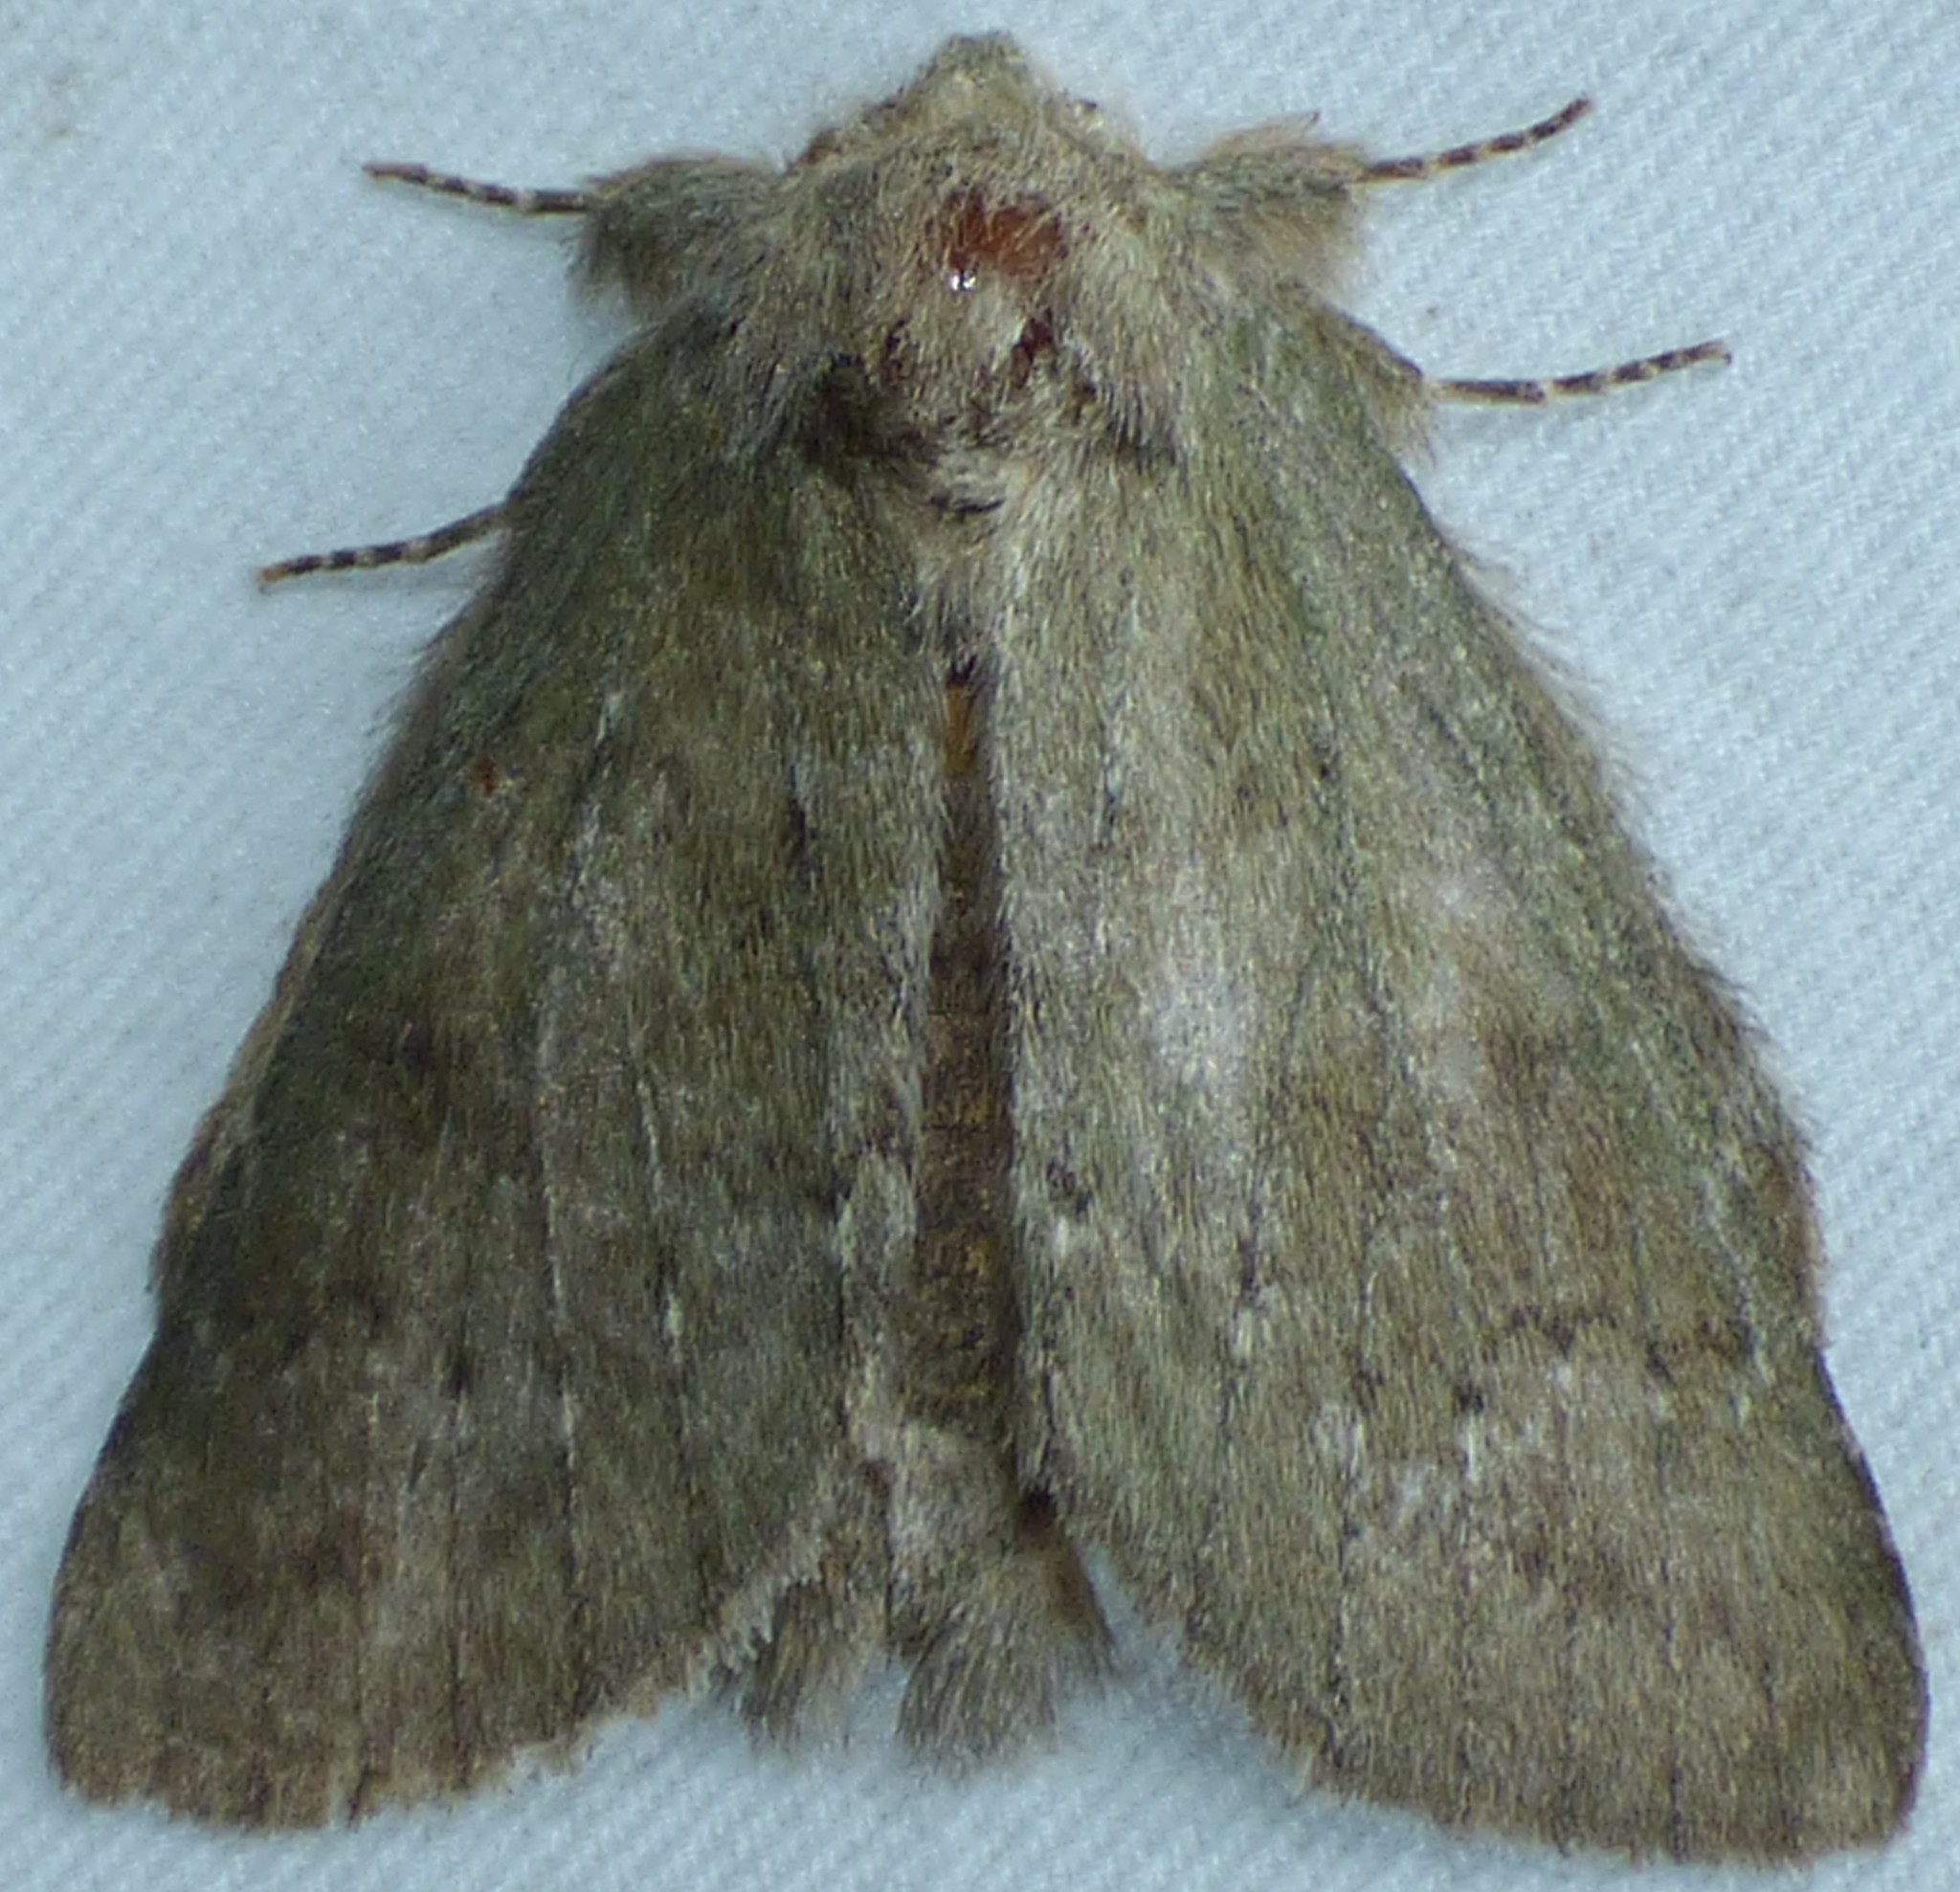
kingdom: Animalia
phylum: Arthropoda
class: Insecta
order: Lepidoptera
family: Notodontidae
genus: Misogada
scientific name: Misogada unicolor
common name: Drab prominent
